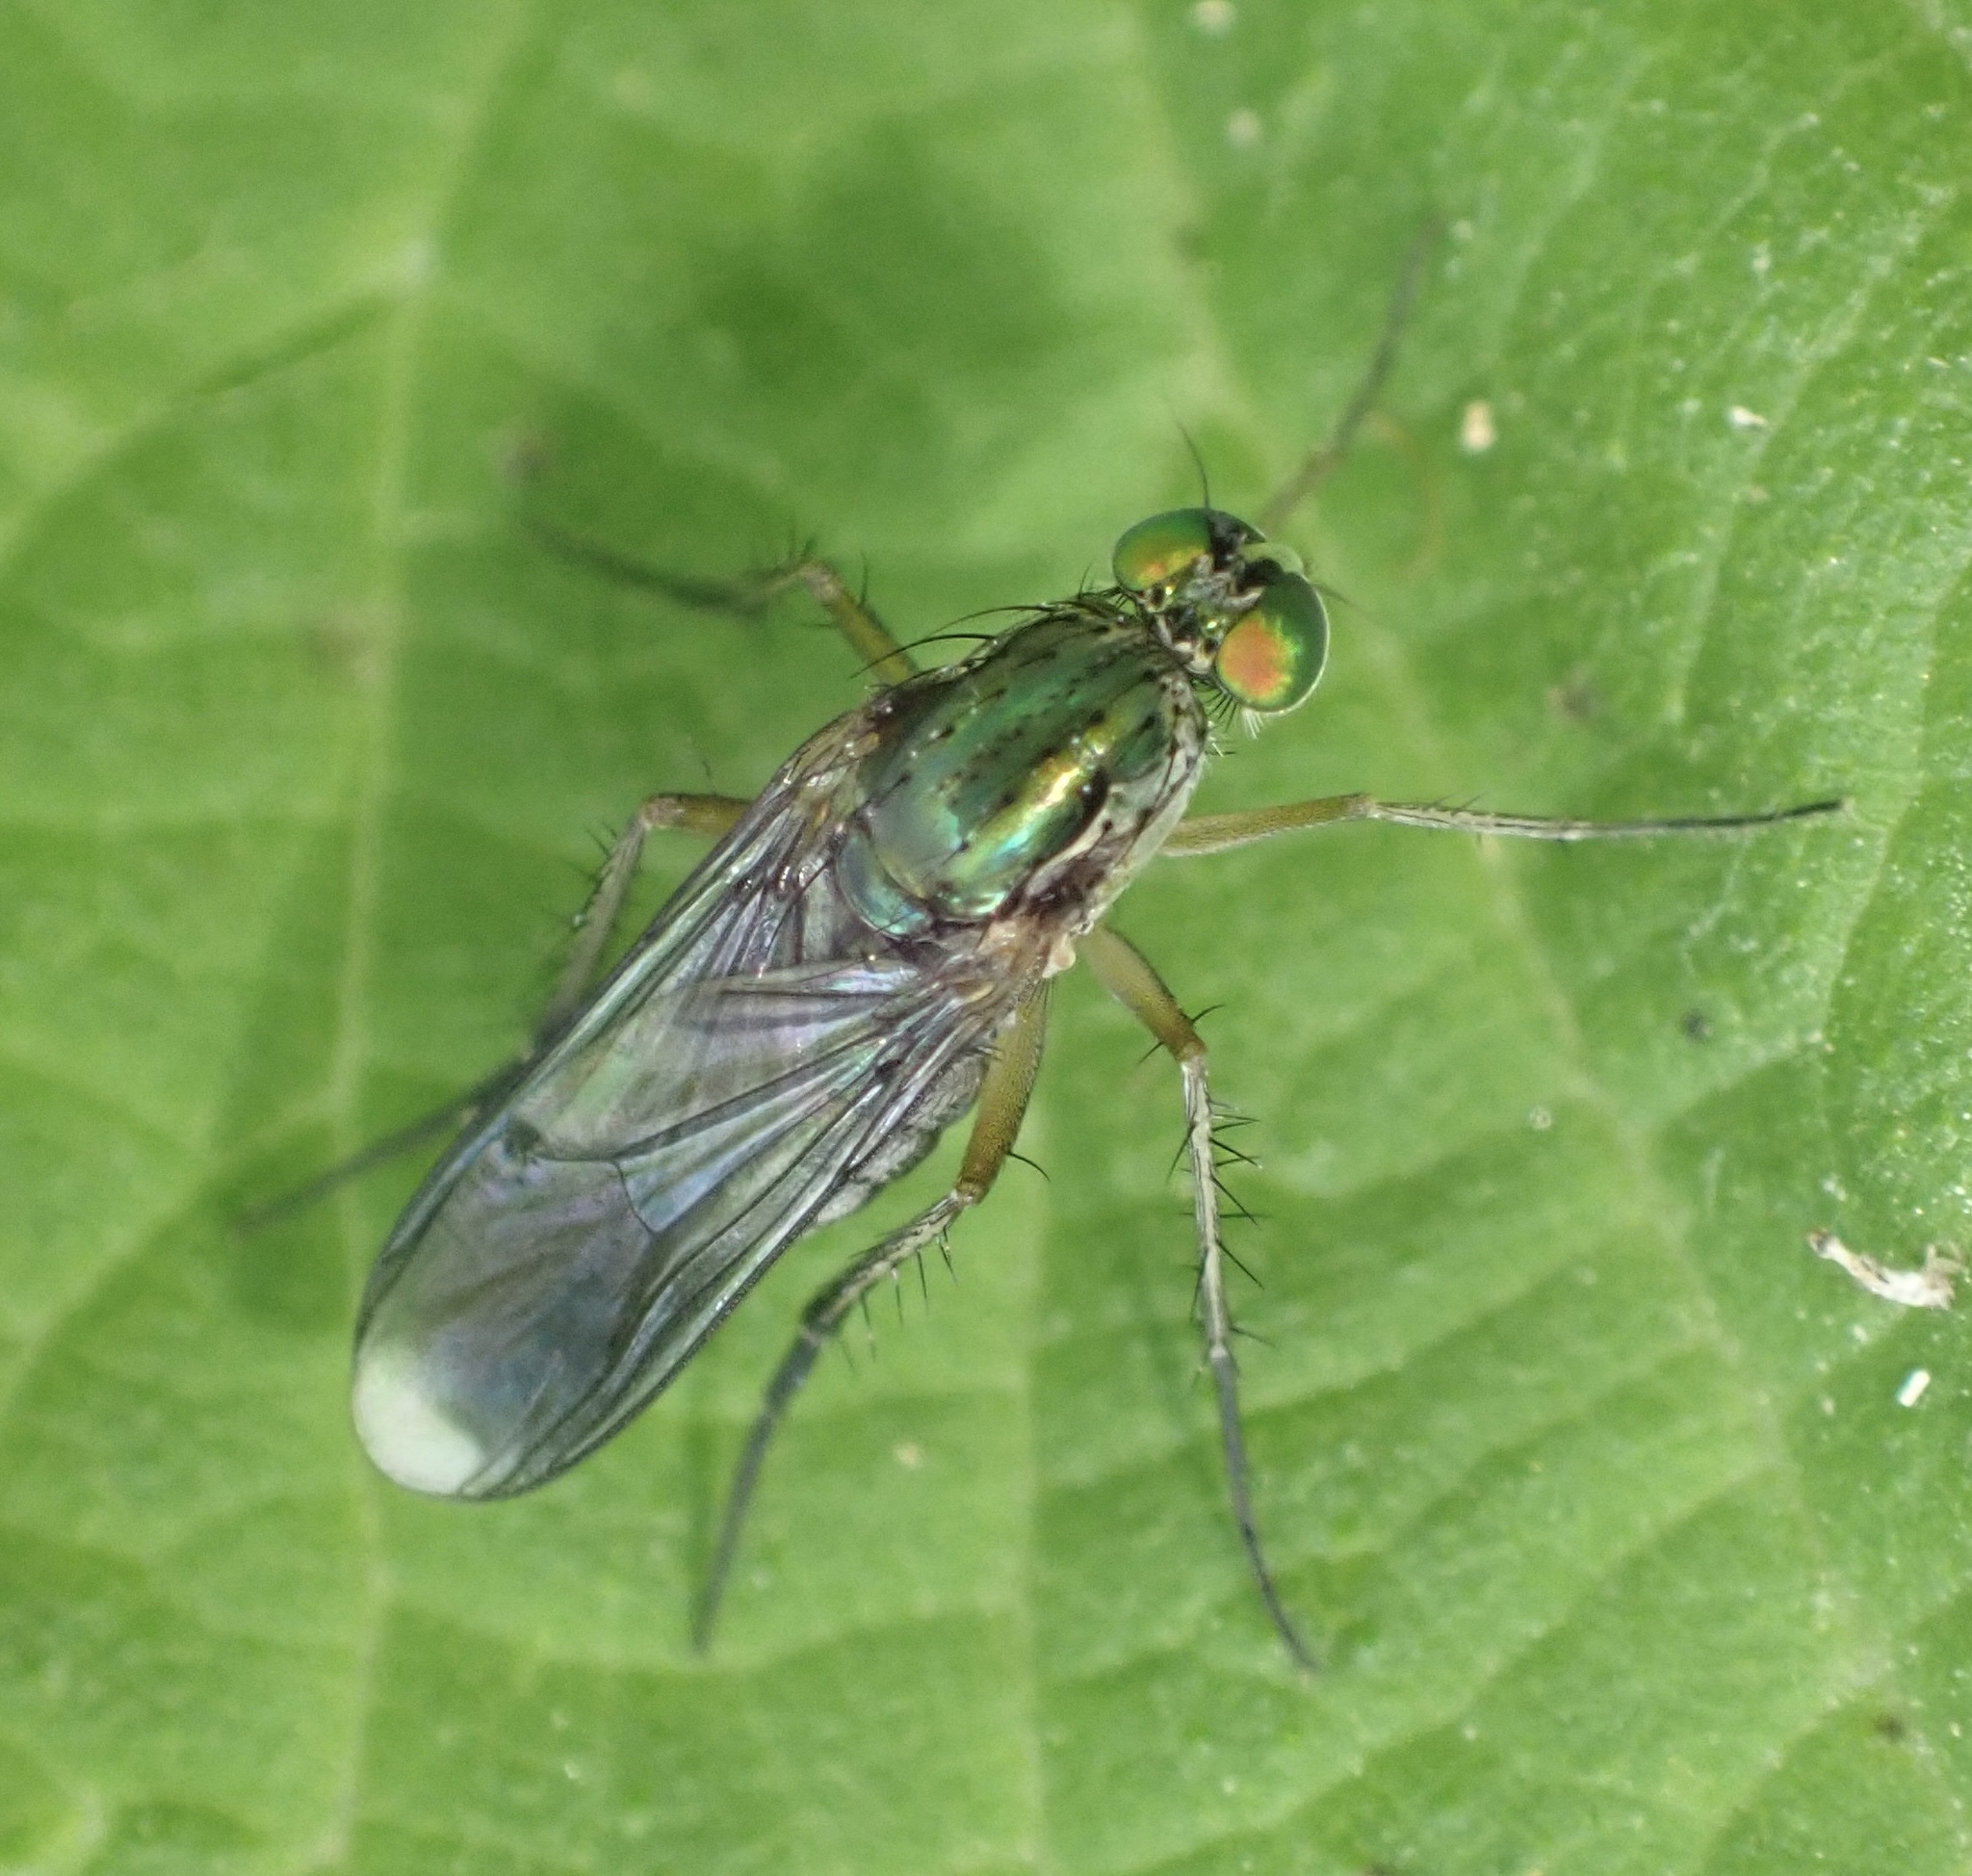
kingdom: Animalia
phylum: Arthropoda
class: Insecta
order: Diptera
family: Dolichopodidae
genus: Poecilobothrus
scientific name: Poecilobothrus nobilitatus
